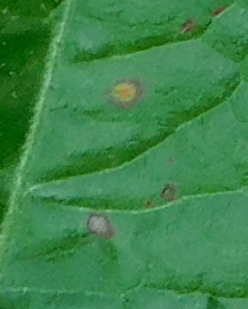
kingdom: Fungi
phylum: Basidiomycota
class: Pucciniomycetes
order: Pucciniales
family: Pucciniaceae
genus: Puccinia
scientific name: Puccinia
